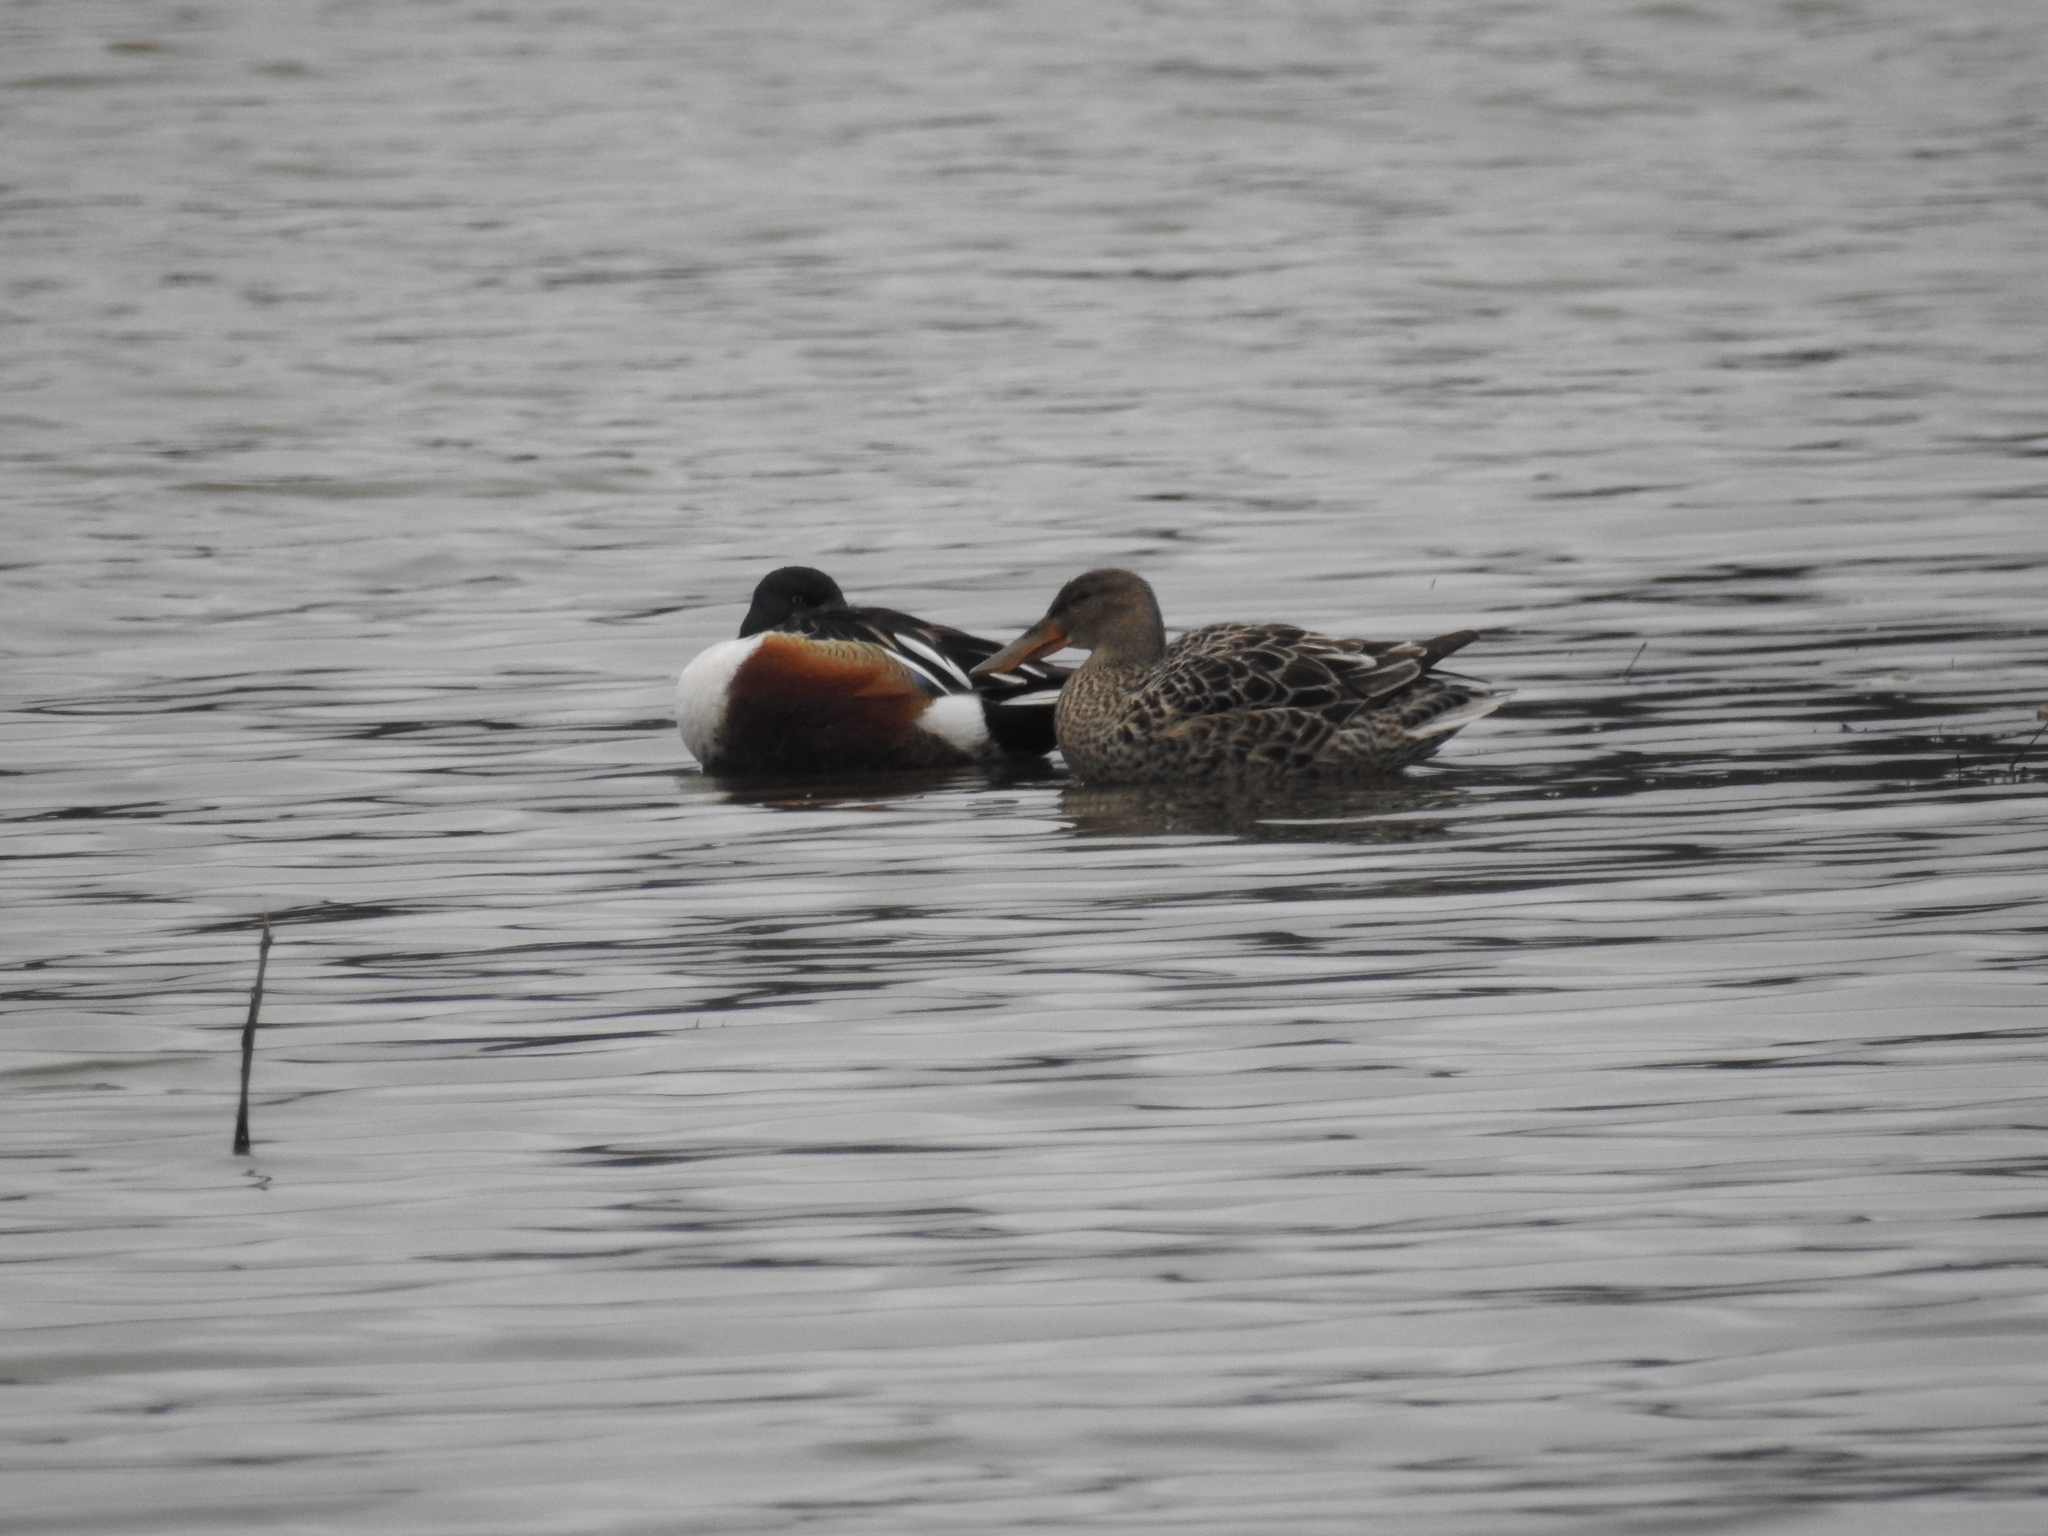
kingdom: Animalia
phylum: Chordata
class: Aves
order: Anseriformes
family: Anatidae
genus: Spatula
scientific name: Spatula clypeata
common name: Northern shoveler
